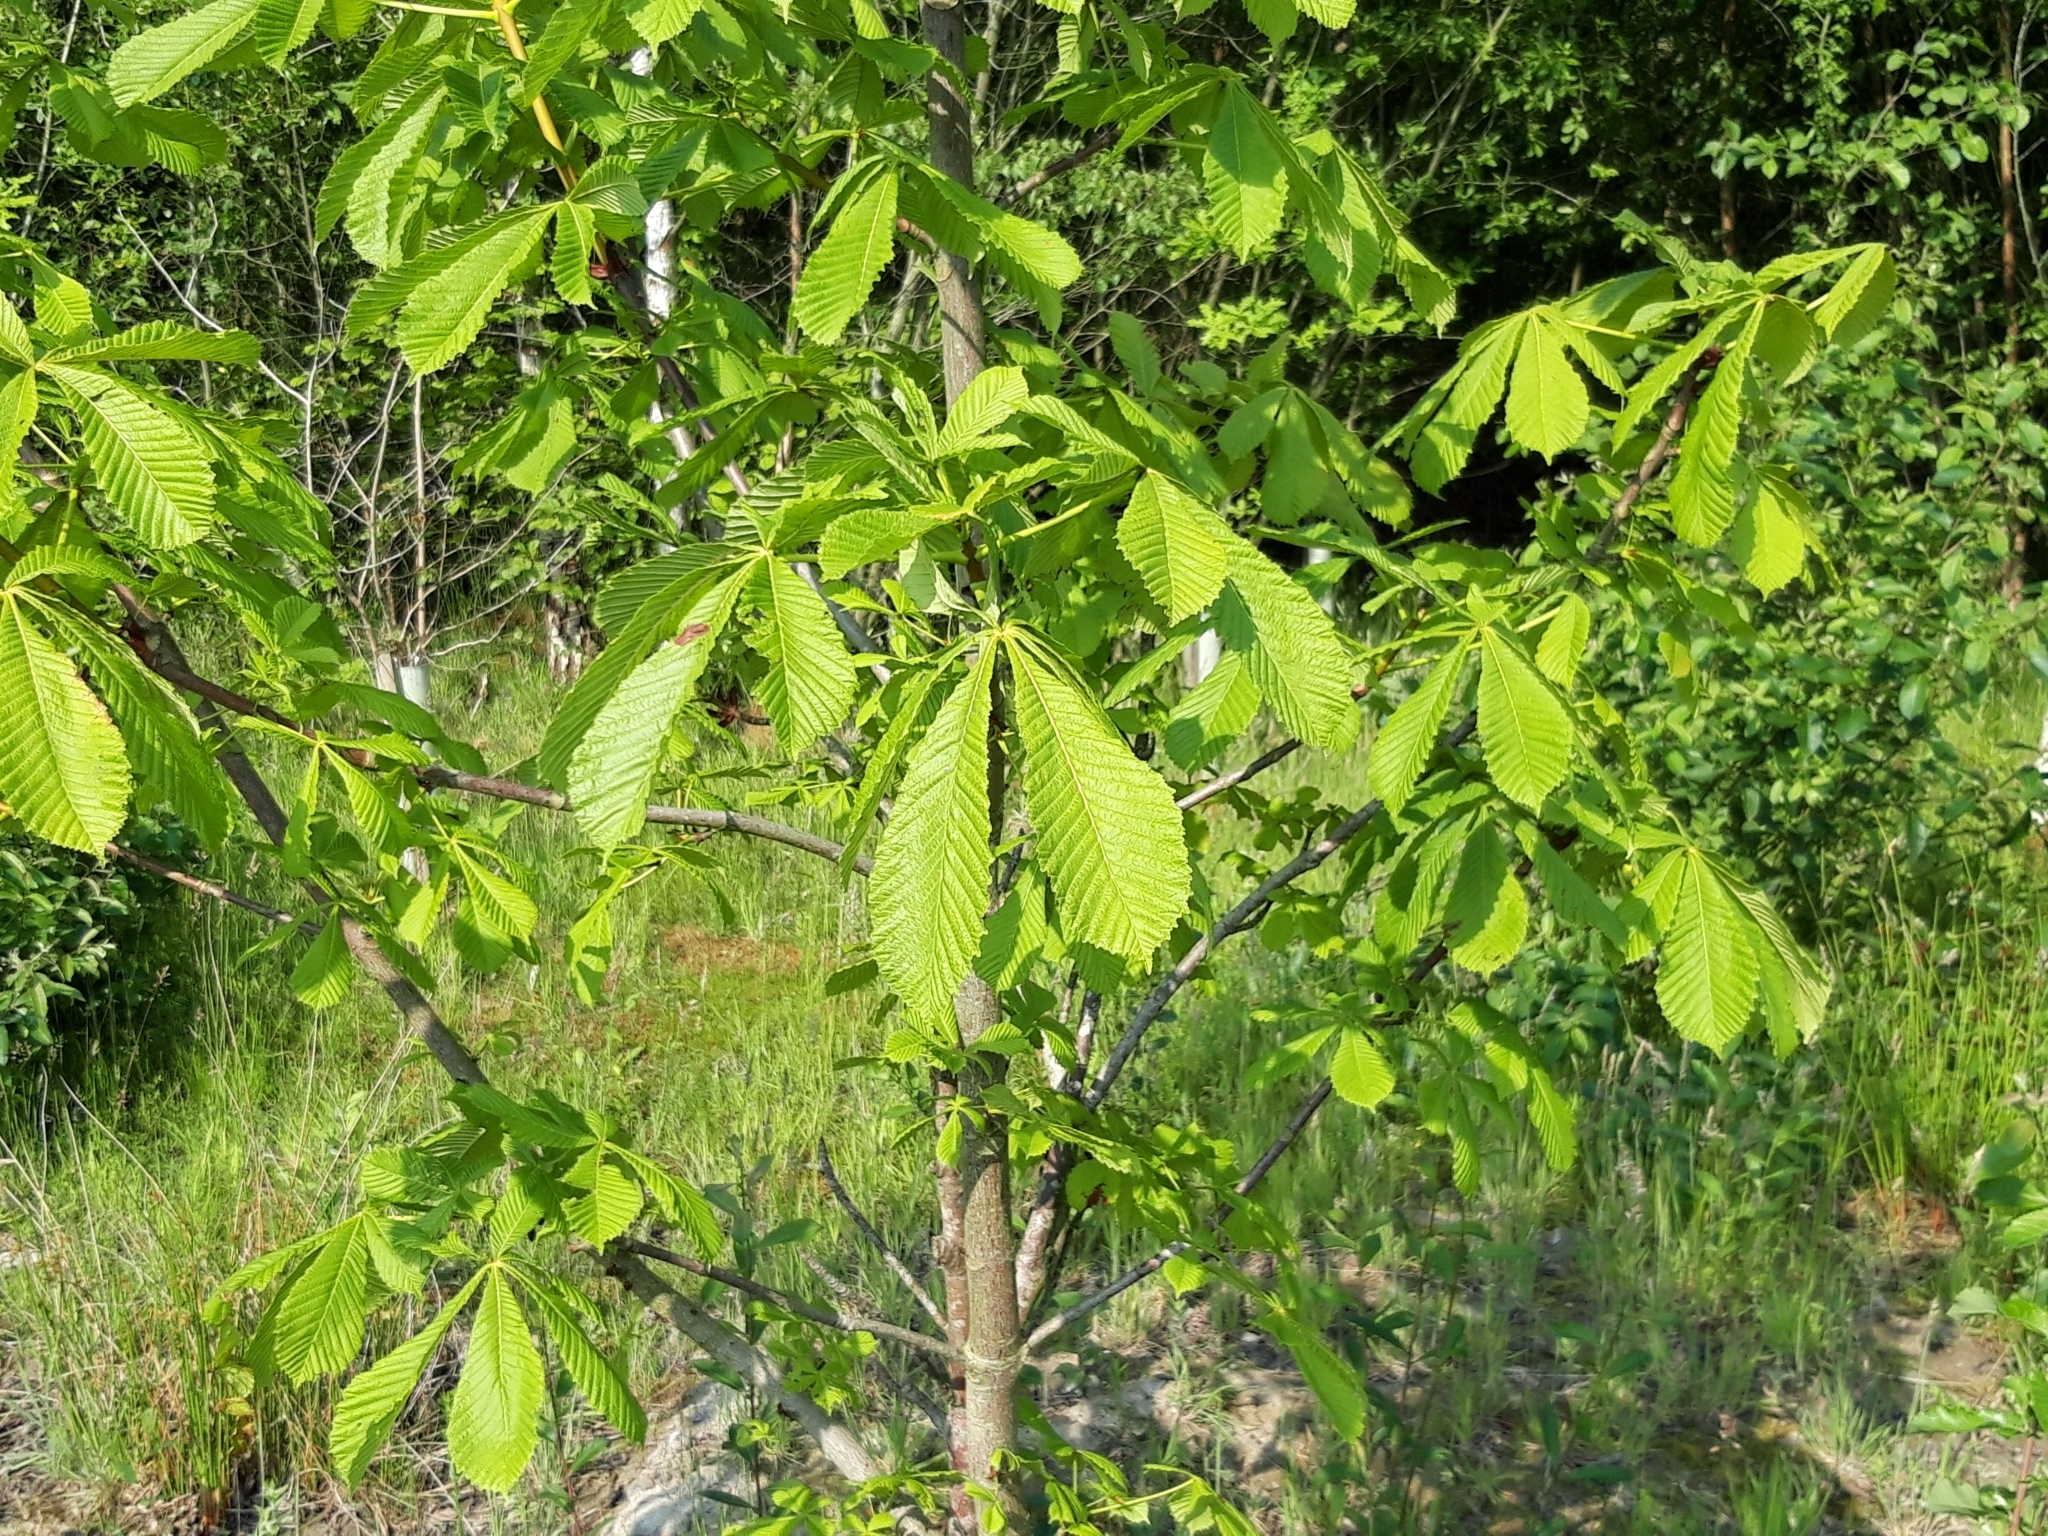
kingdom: Plantae
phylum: Tracheophyta
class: Magnoliopsida
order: Sapindales
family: Sapindaceae
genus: Aesculus
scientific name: Aesculus hippocastanum
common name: Horse-chestnut
